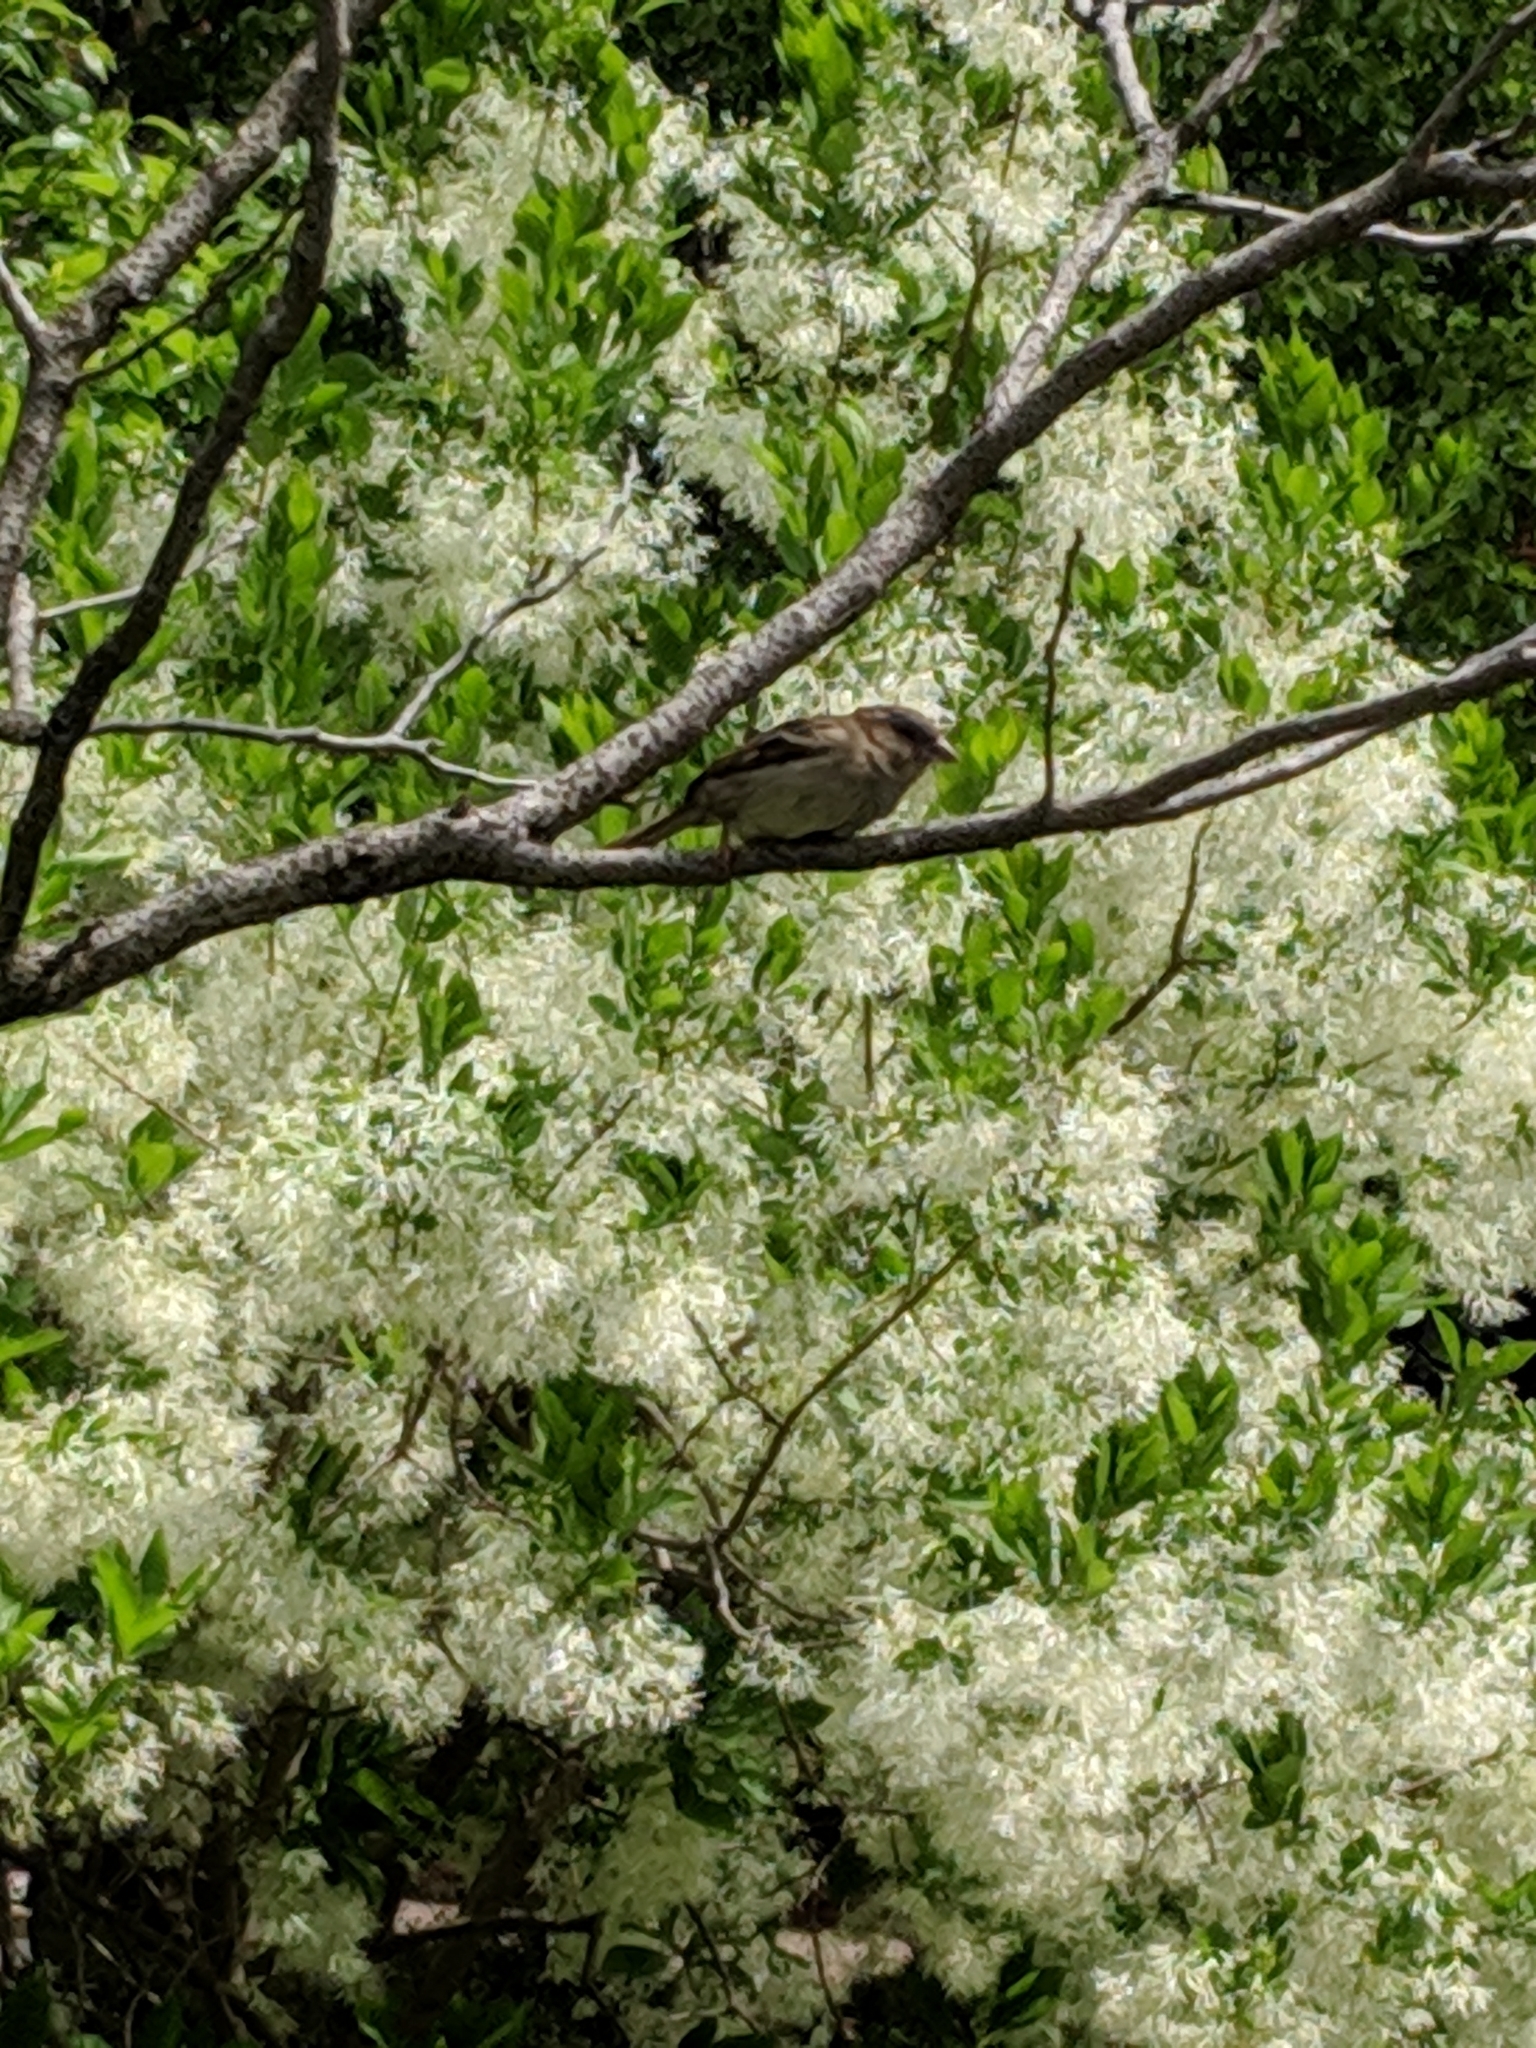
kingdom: Animalia
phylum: Chordata
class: Aves
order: Passeriformes
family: Passeridae
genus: Passer
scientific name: Passer domesticus
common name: House sparrow
